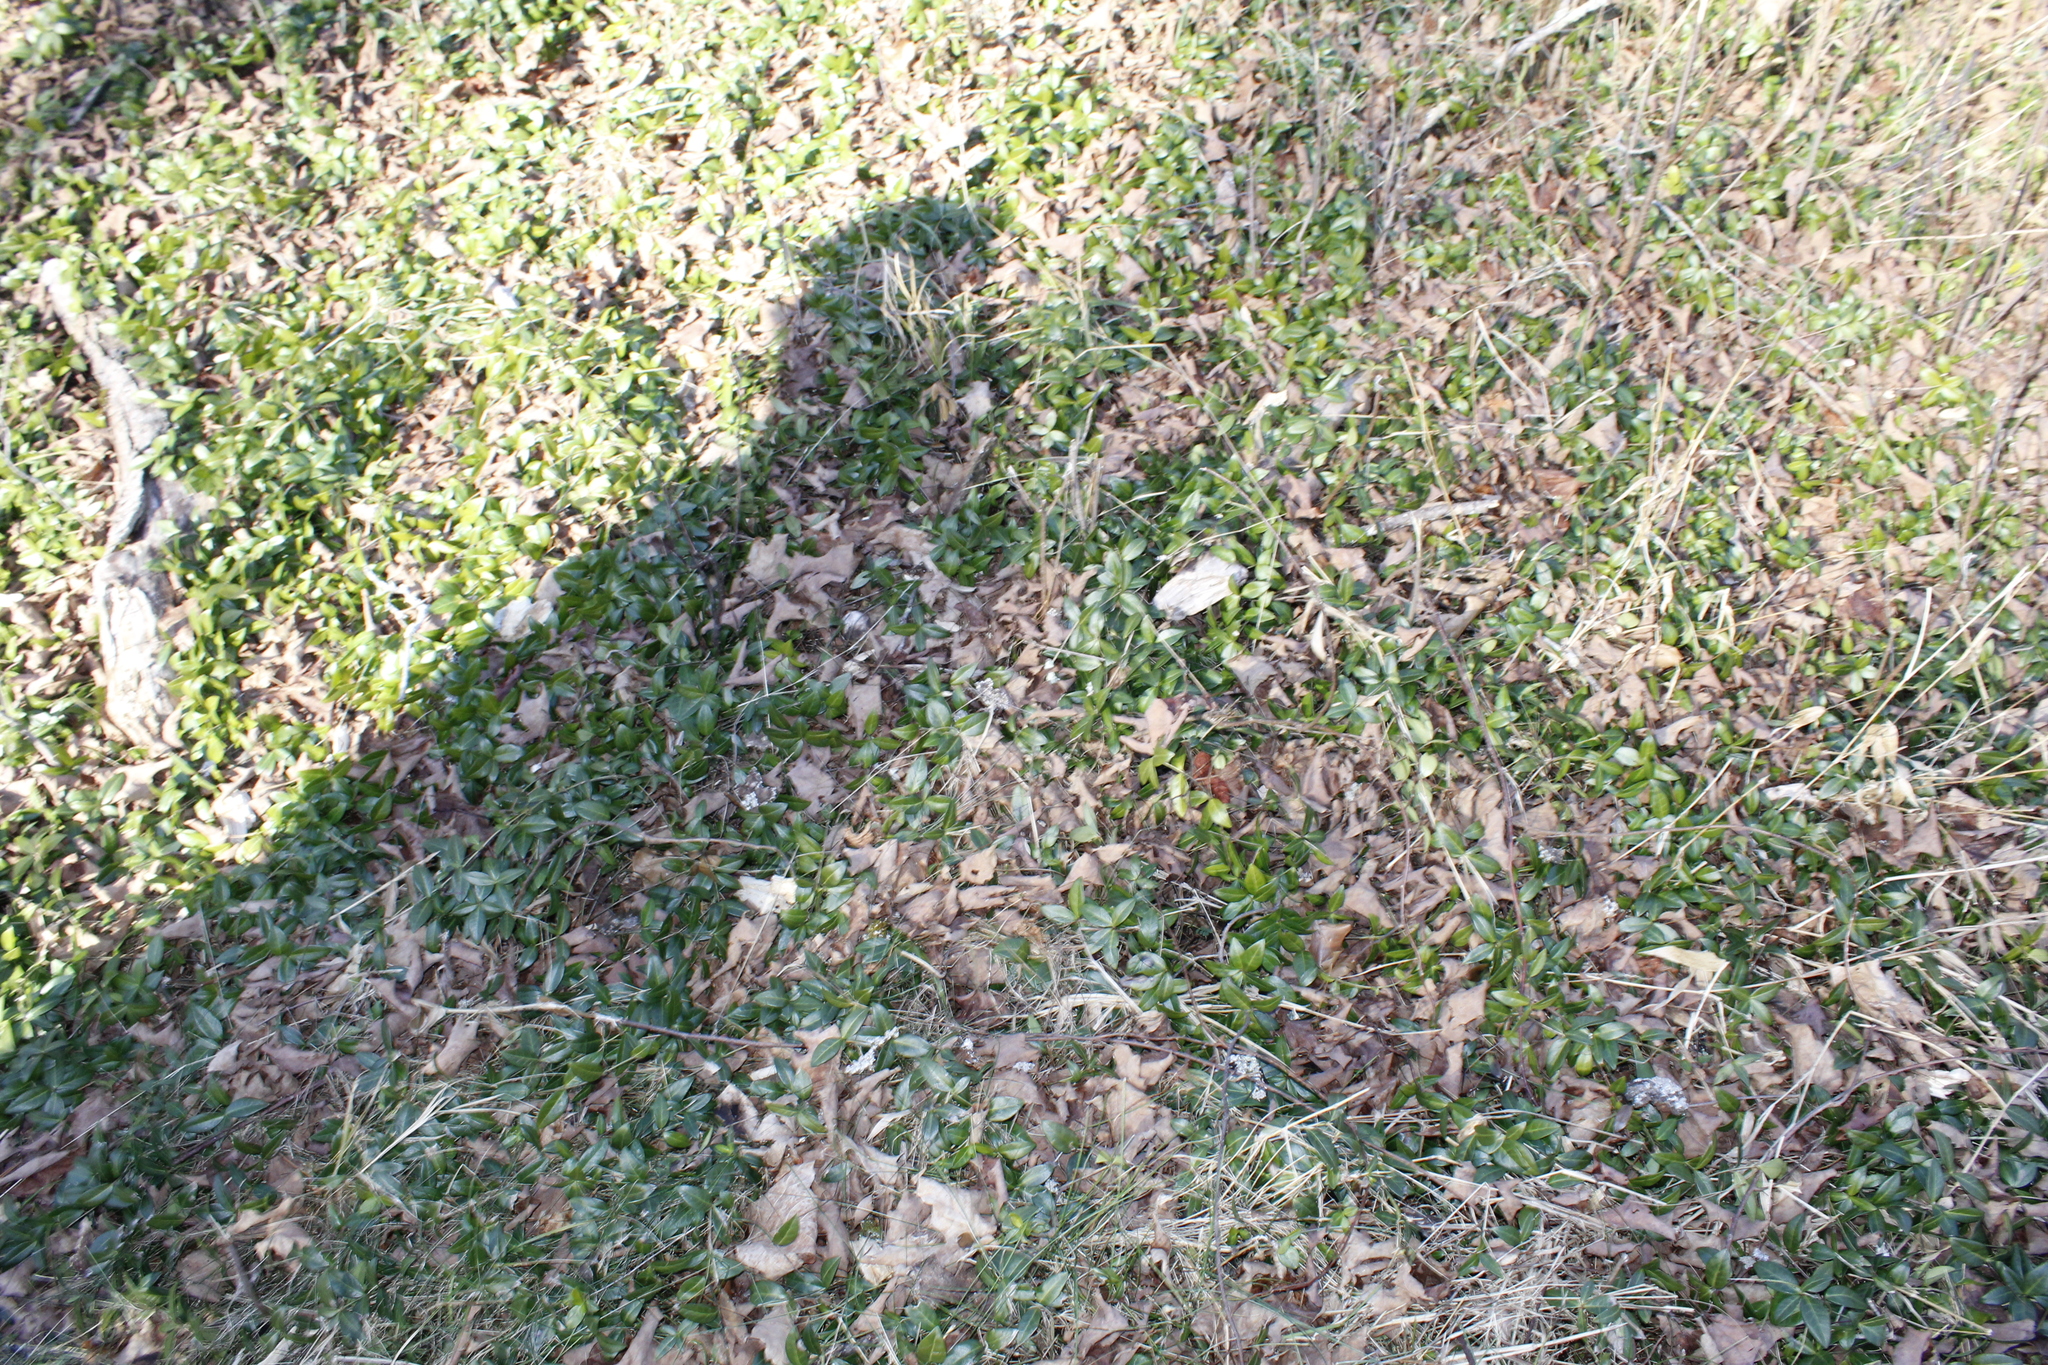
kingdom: Plantae
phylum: Tracheophyta
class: Magnoliopsida
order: Gentianales
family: Apocynaceae
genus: Vinca
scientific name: Vinca minor
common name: Lesser periwinkle
